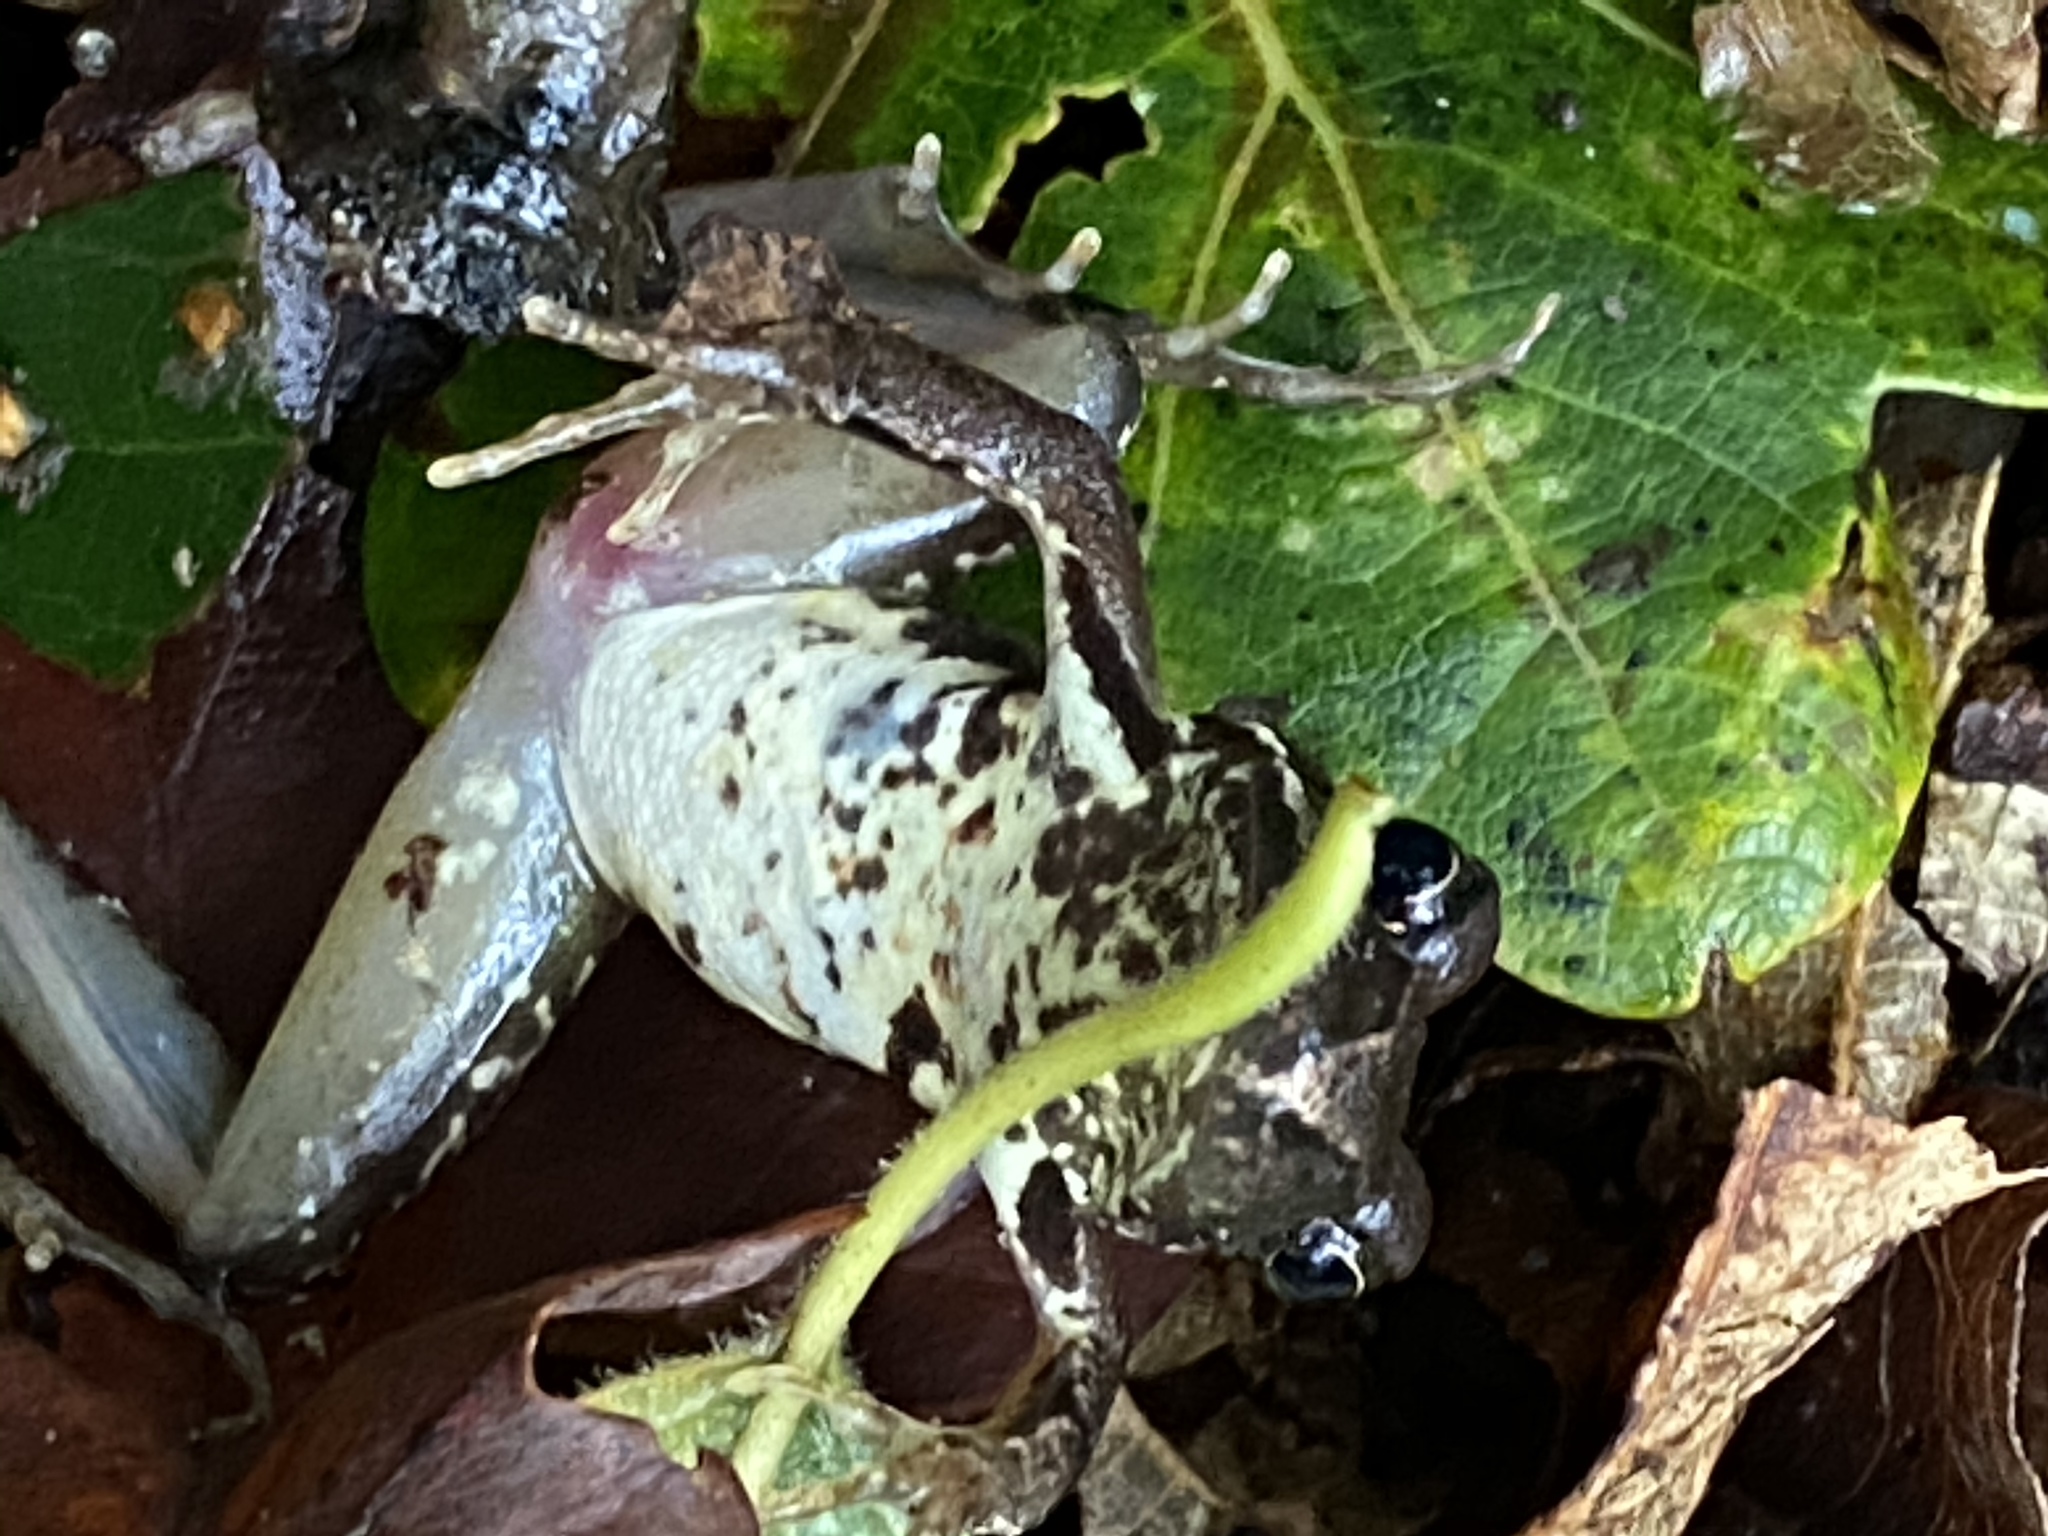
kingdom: Animalia
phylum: Chordata
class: Amphibia
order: Anura
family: Ranidae
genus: Rana
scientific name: Rana temporaria
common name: Common frog
